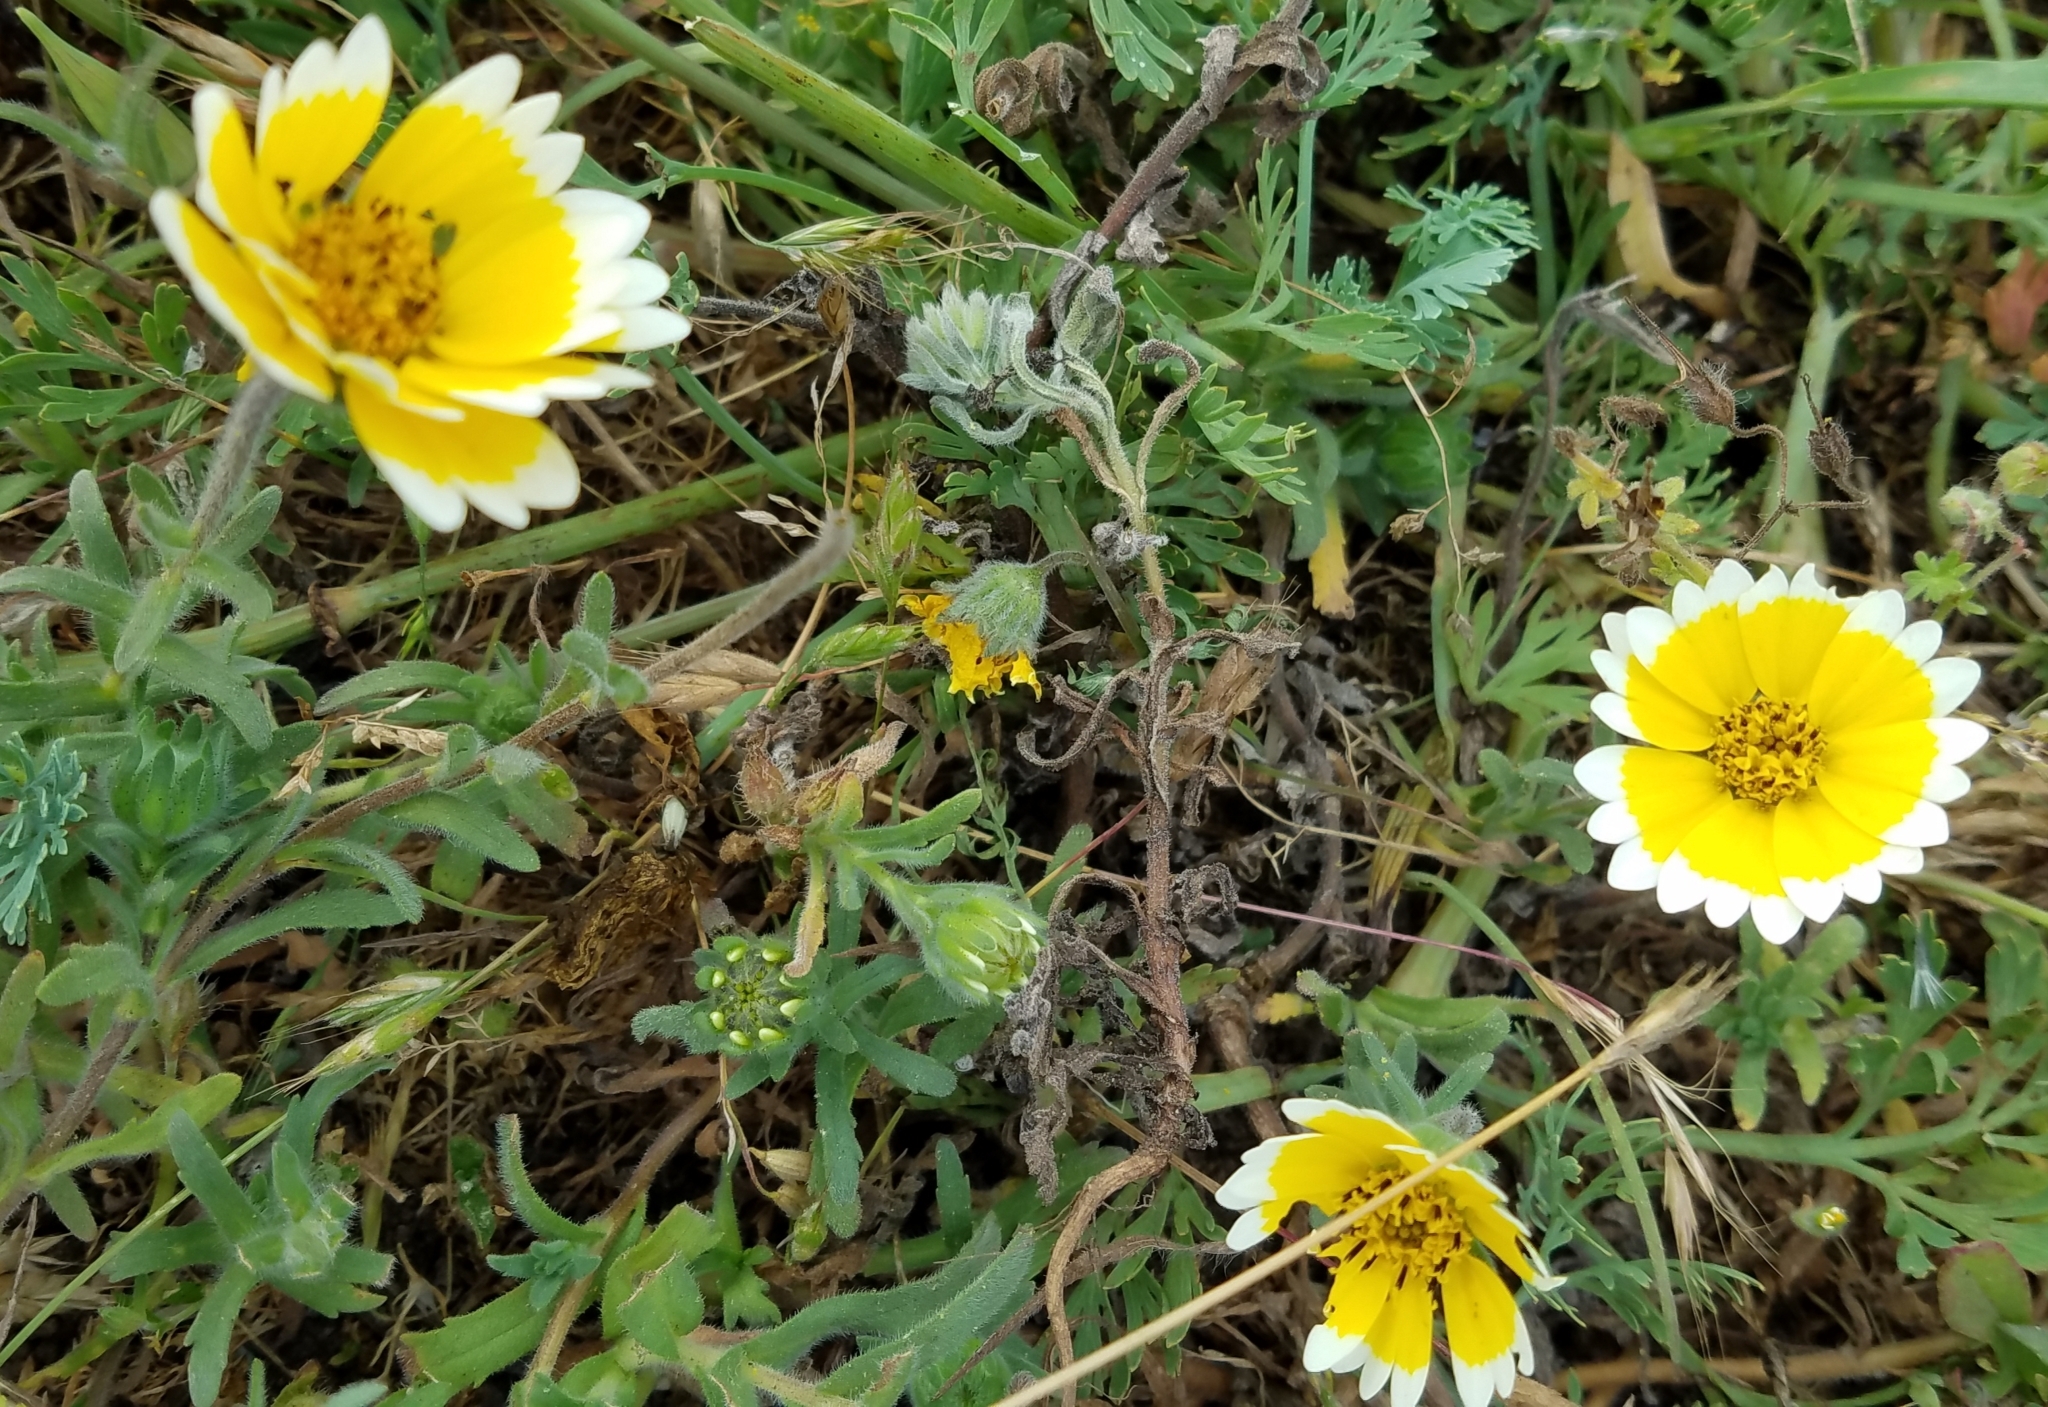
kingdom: Plantae
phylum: Tracheophyta
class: Magnoliopsida
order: Asterales
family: Asteraceae
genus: Layia
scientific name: Layia platyglossa
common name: Tidy-tips
